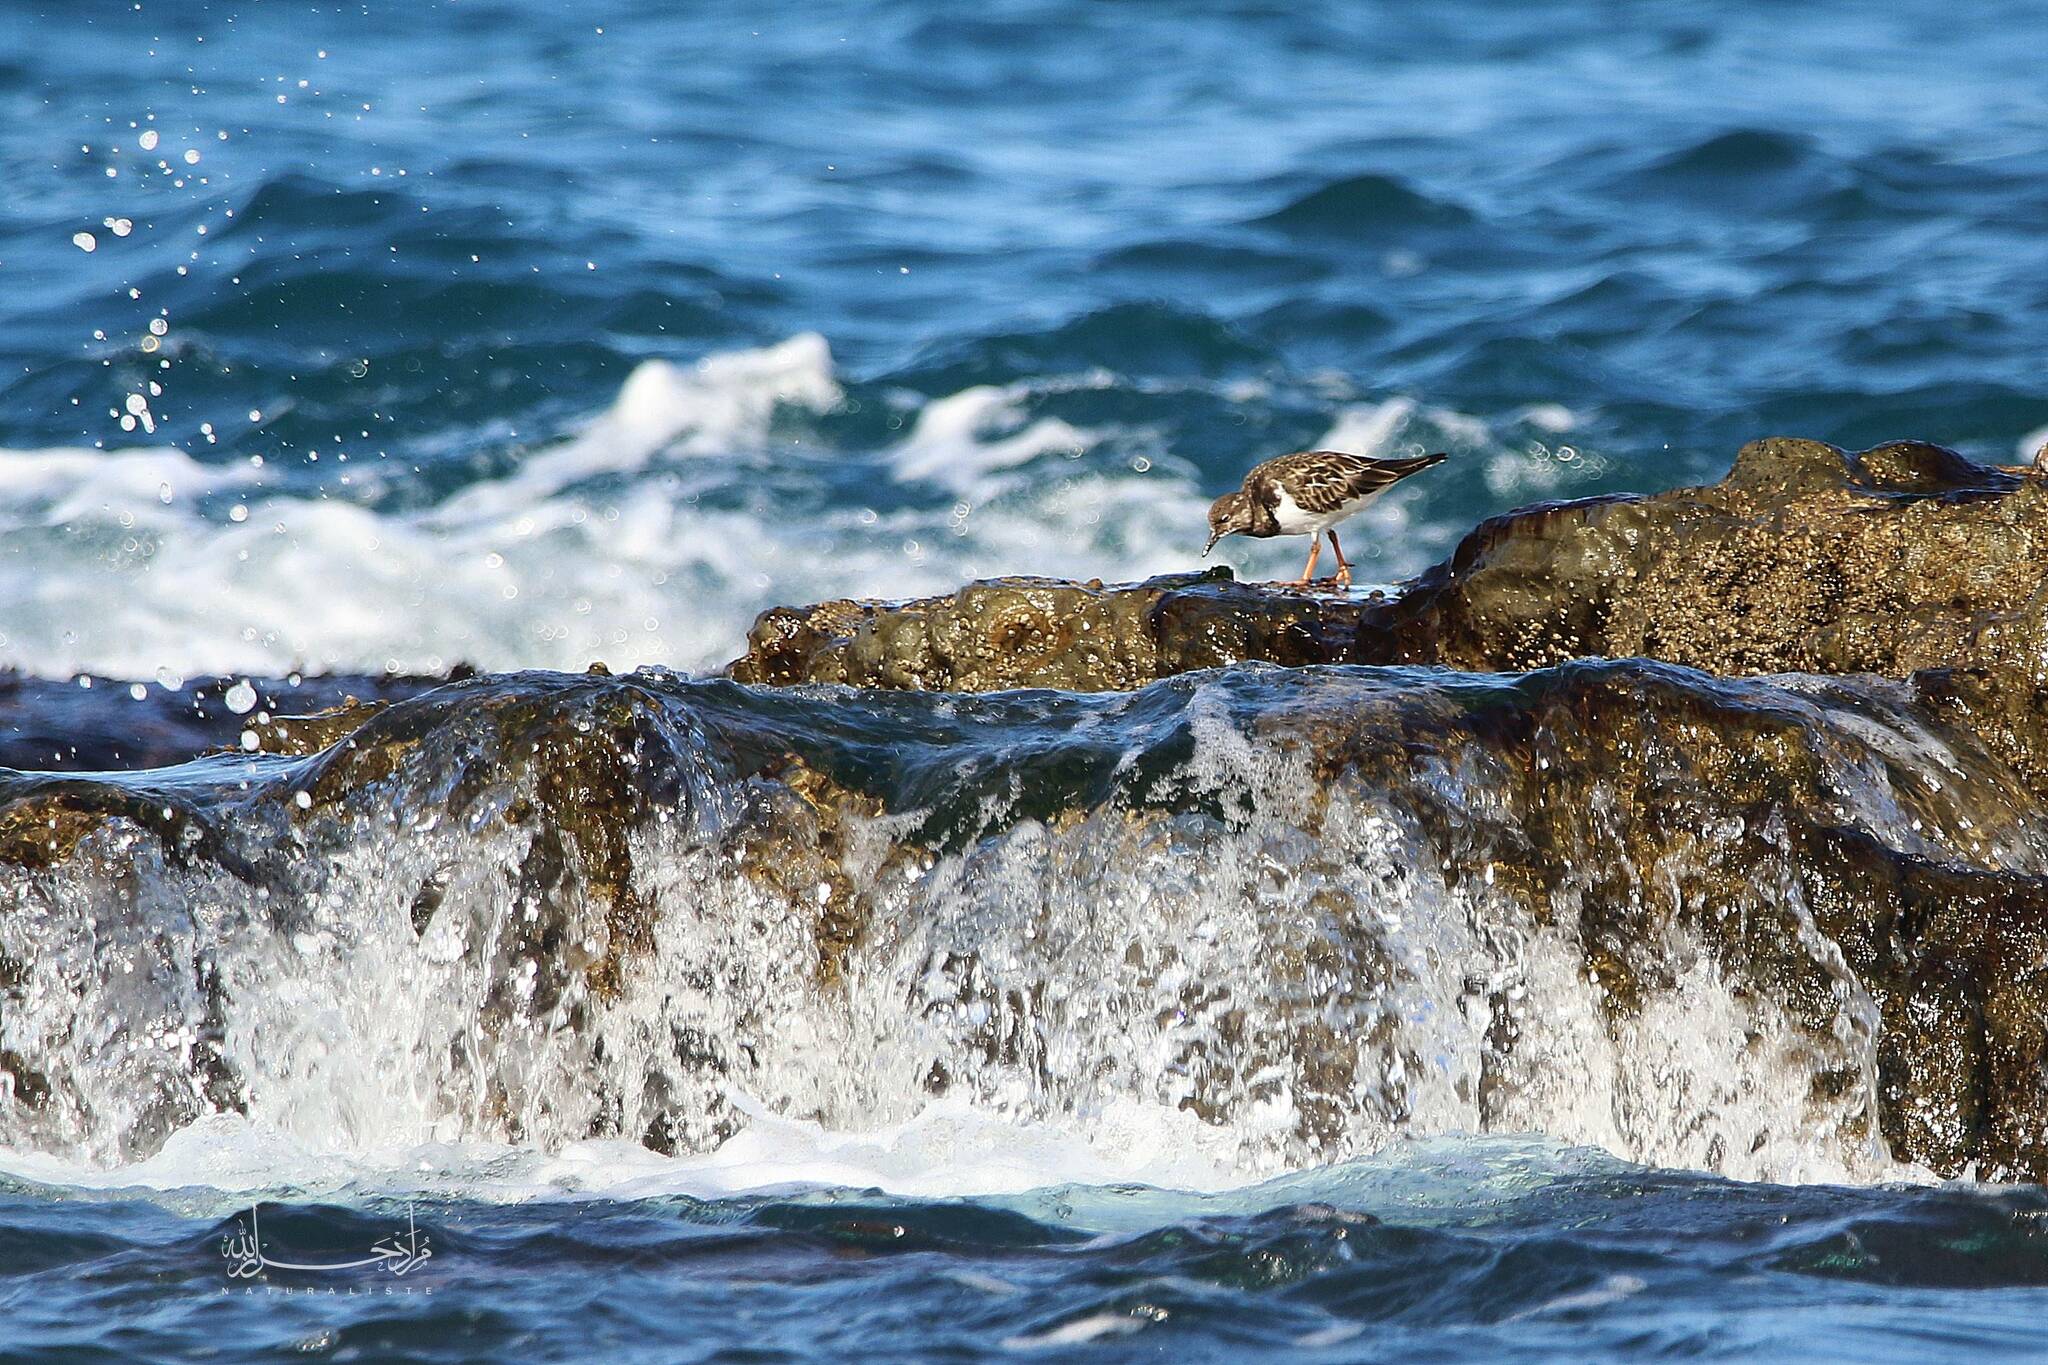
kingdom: Animalia
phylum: Chordata
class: Aves
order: Charadriiformes
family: Scolopacidae
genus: Arenaria
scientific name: Arenaria interpres
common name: Ruddy turnstone
